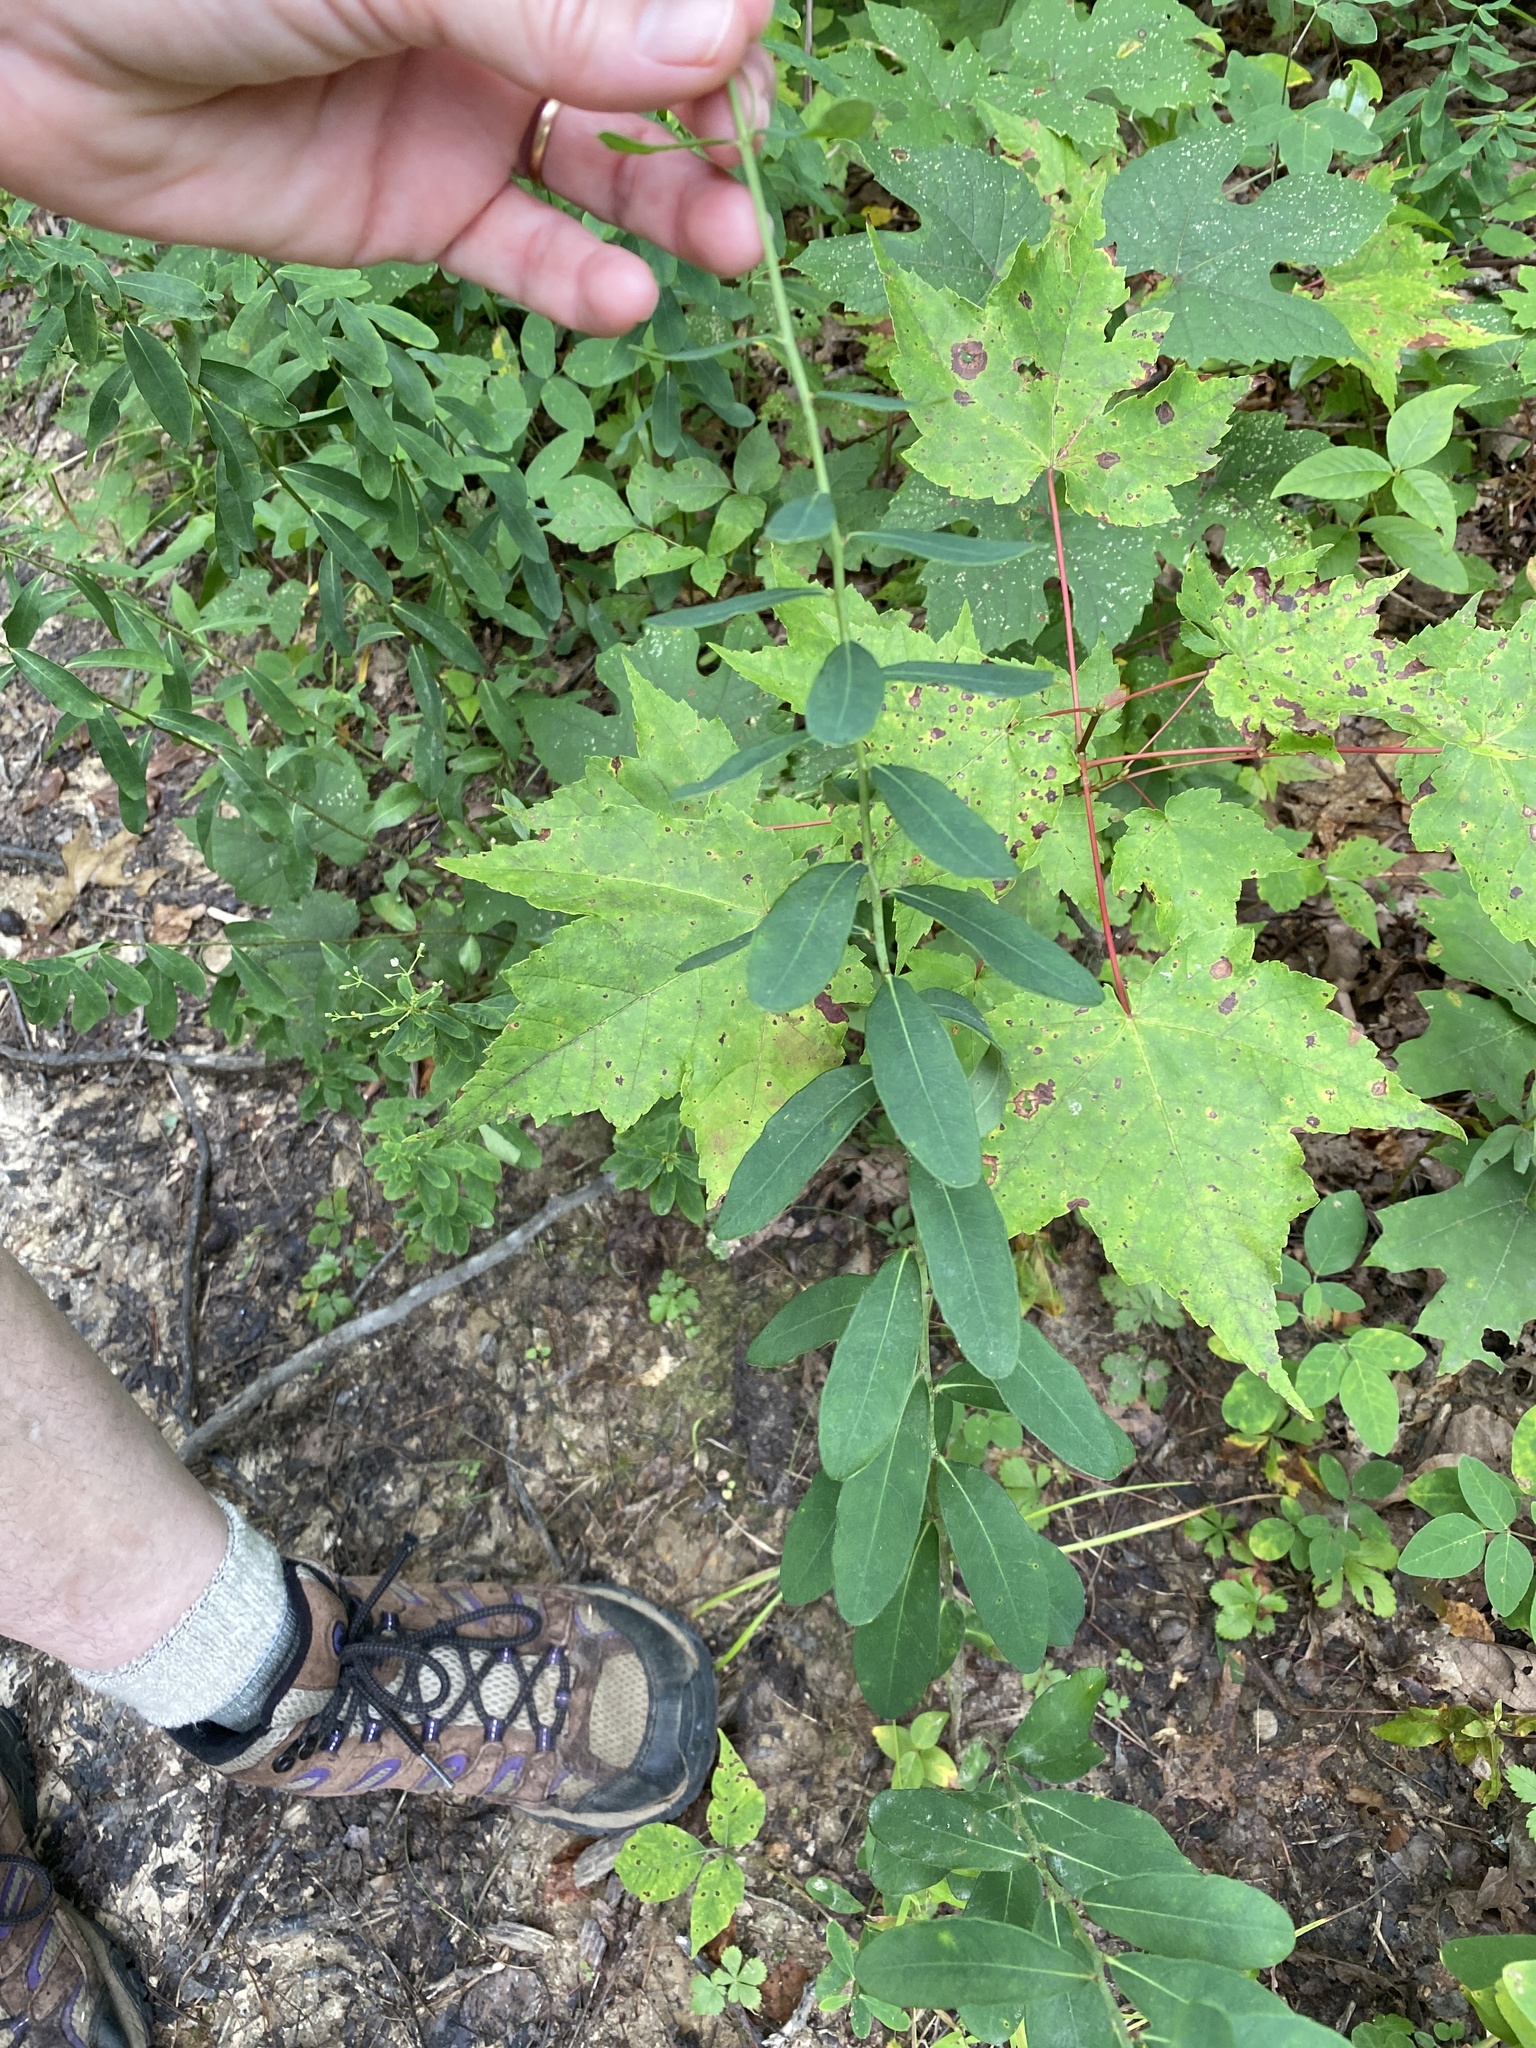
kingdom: Plantae
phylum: Tracheophyta
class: Magnoliopsida
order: Malpighiales
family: Euphorbiaceae
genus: Euphorbia
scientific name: Euphorbia corollata
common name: Flowering spurge
